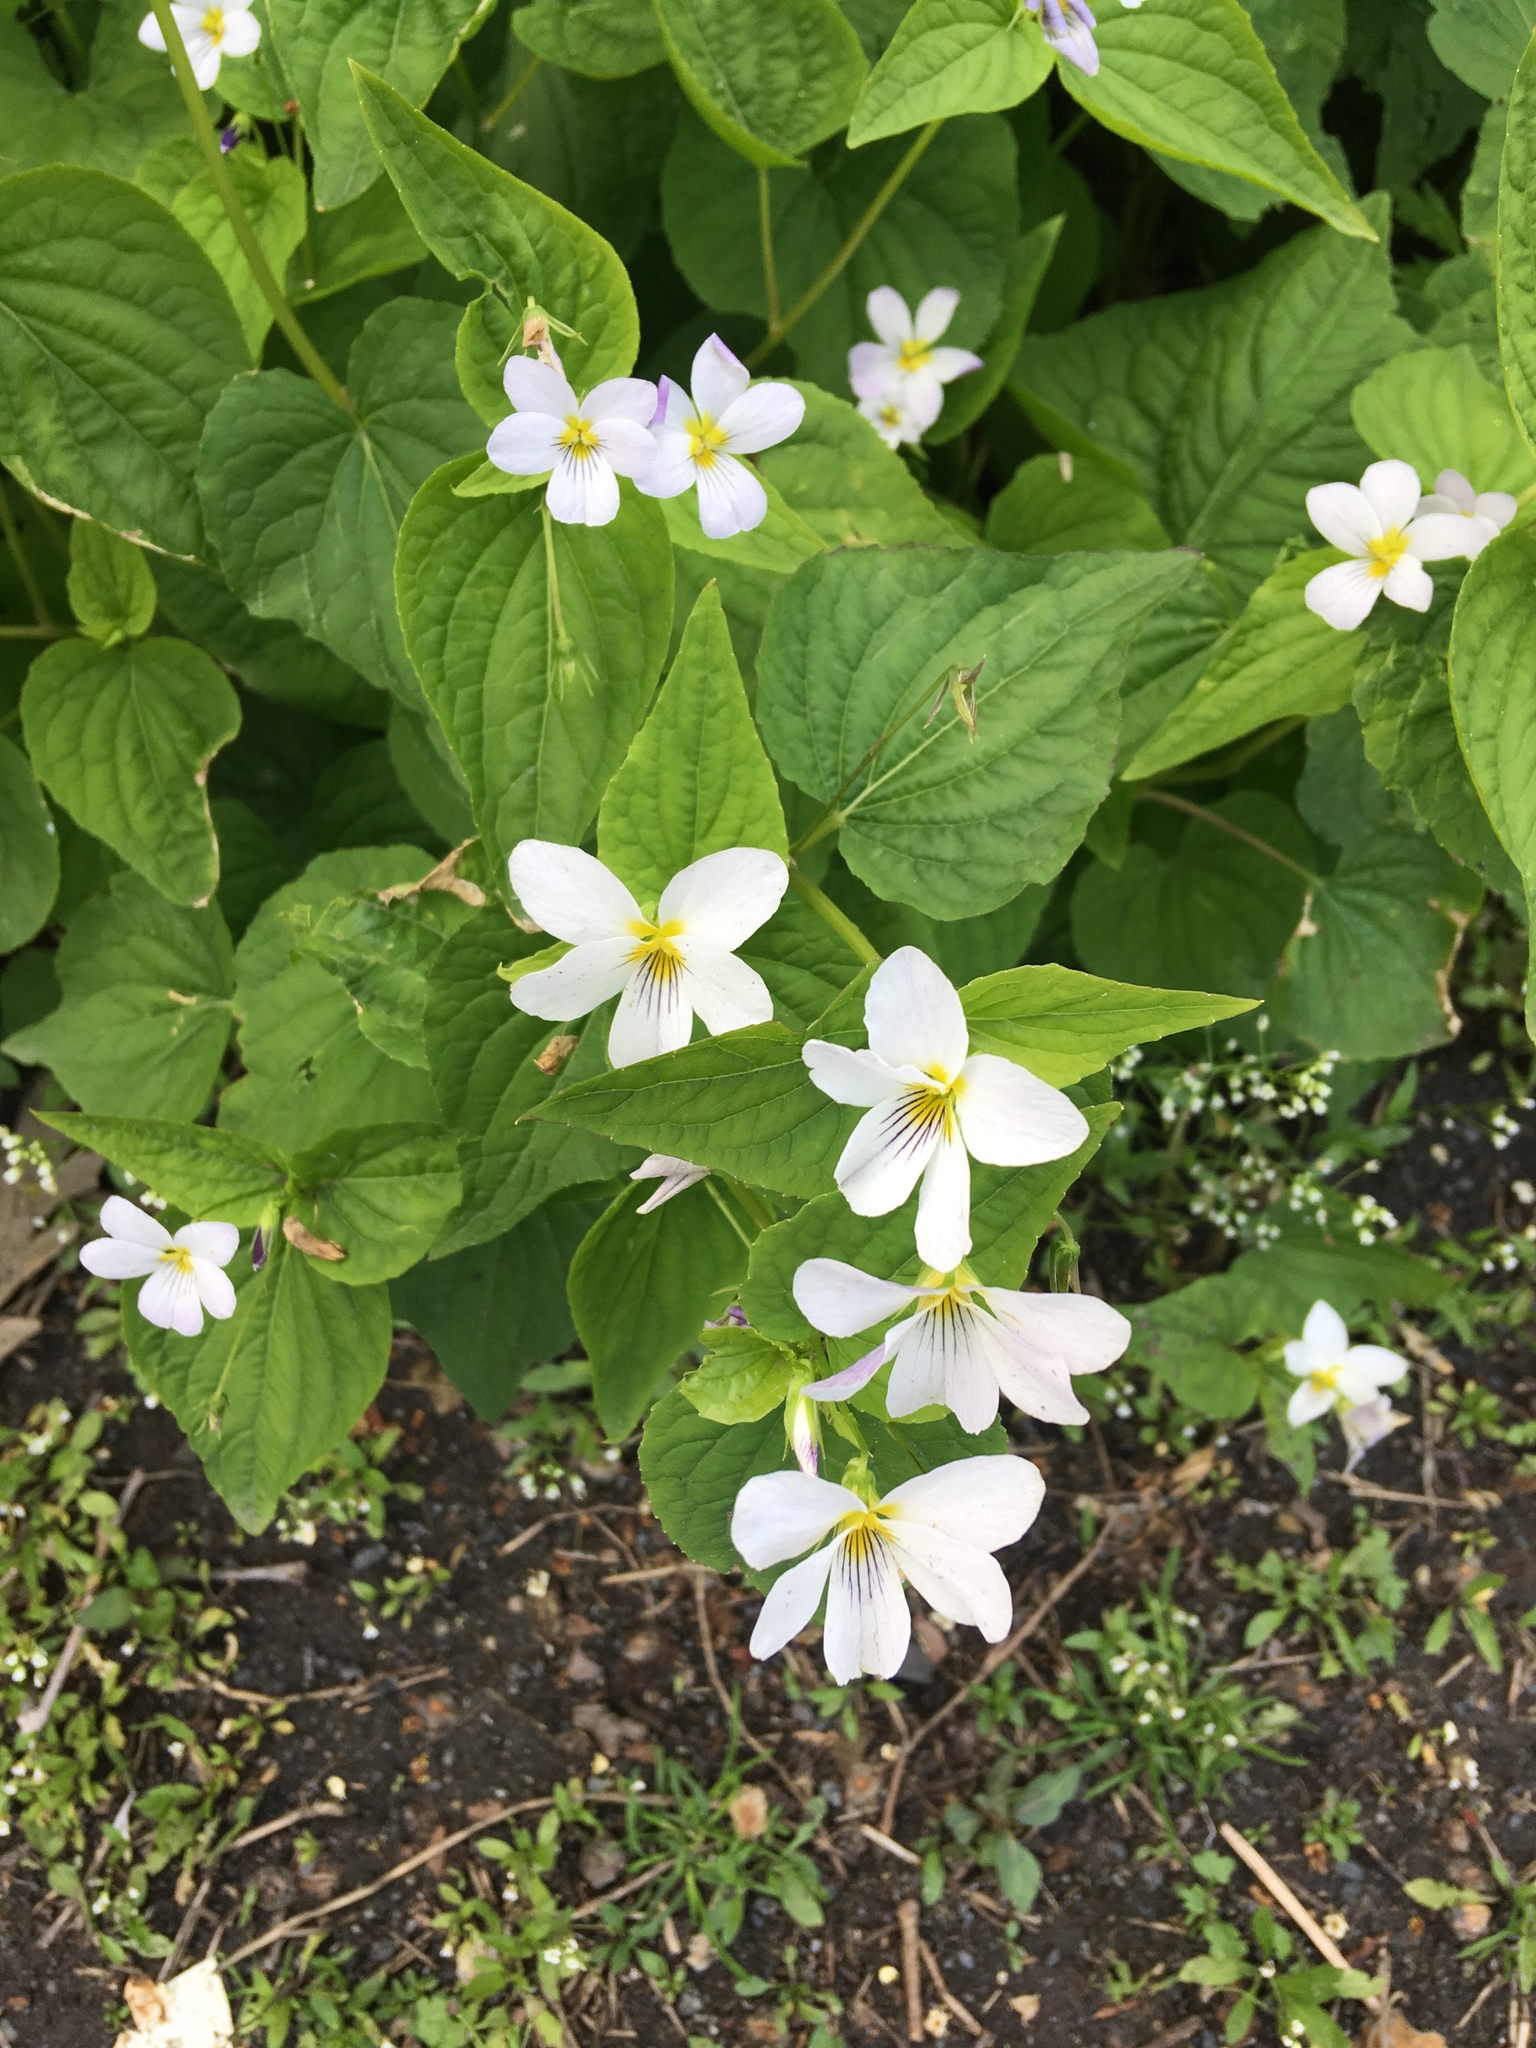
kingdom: Plantae
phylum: Tracheophyta
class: Magnoliopsida
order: Malpighiales
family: Violaceae
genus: Viola
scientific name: Viola canadensis
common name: Canada violet
